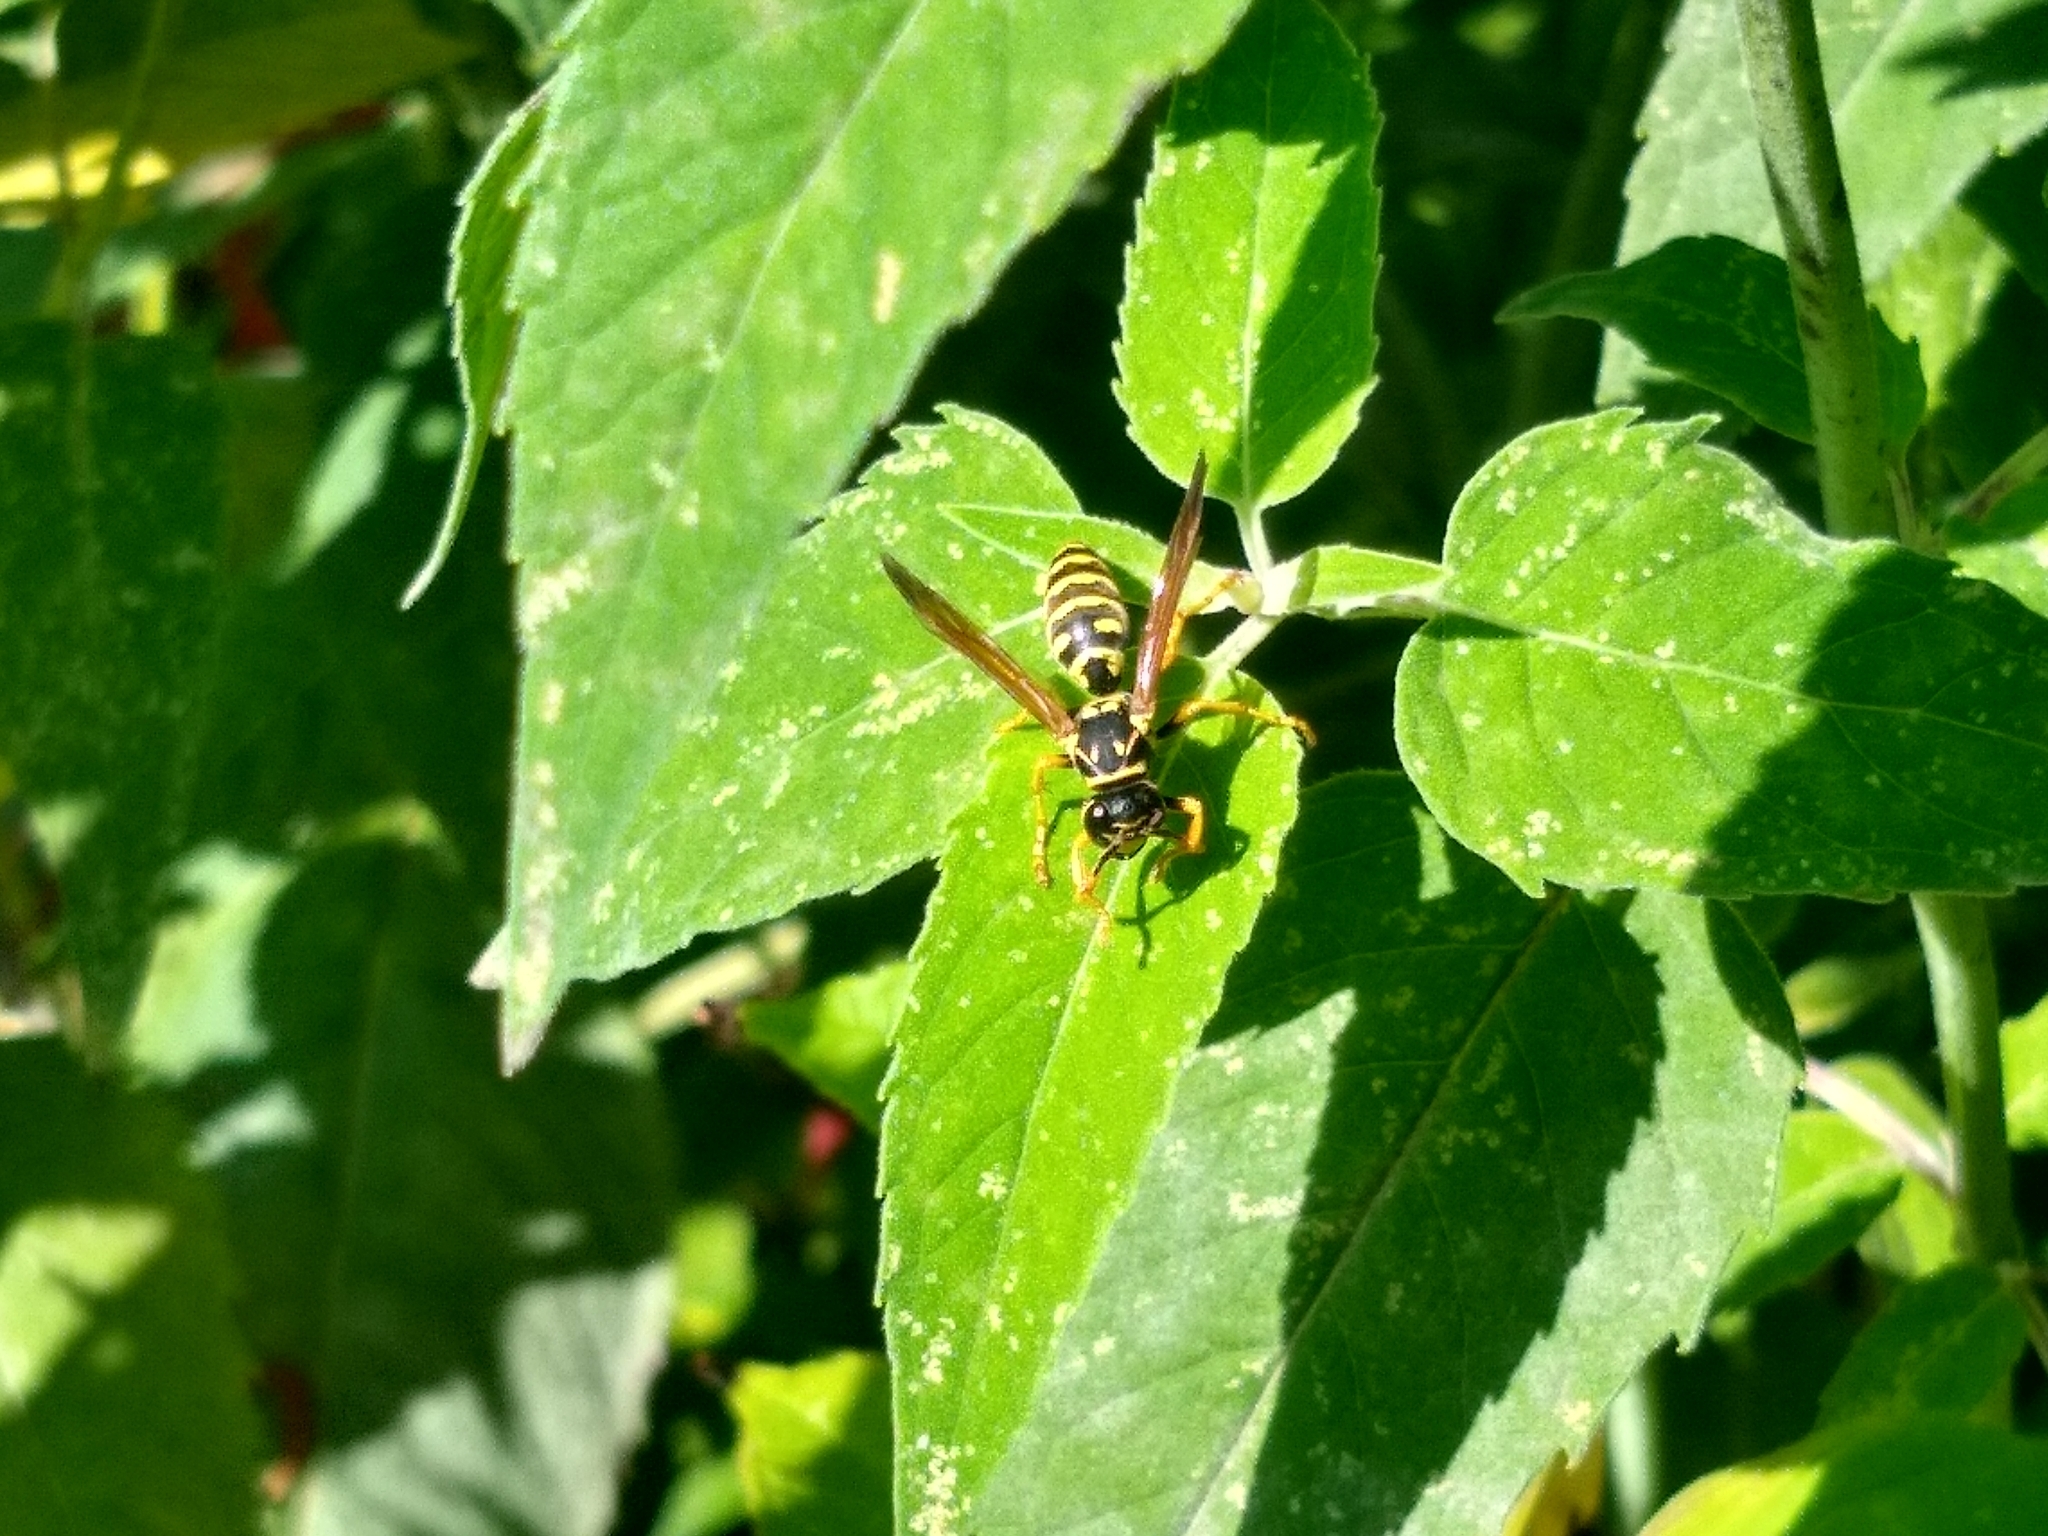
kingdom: Animalia
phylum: Arthropoda
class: Insecta
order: Hymenoptera
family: Eumenidae
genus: Polistes
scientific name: Polistes dominula
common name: Paper wasp
